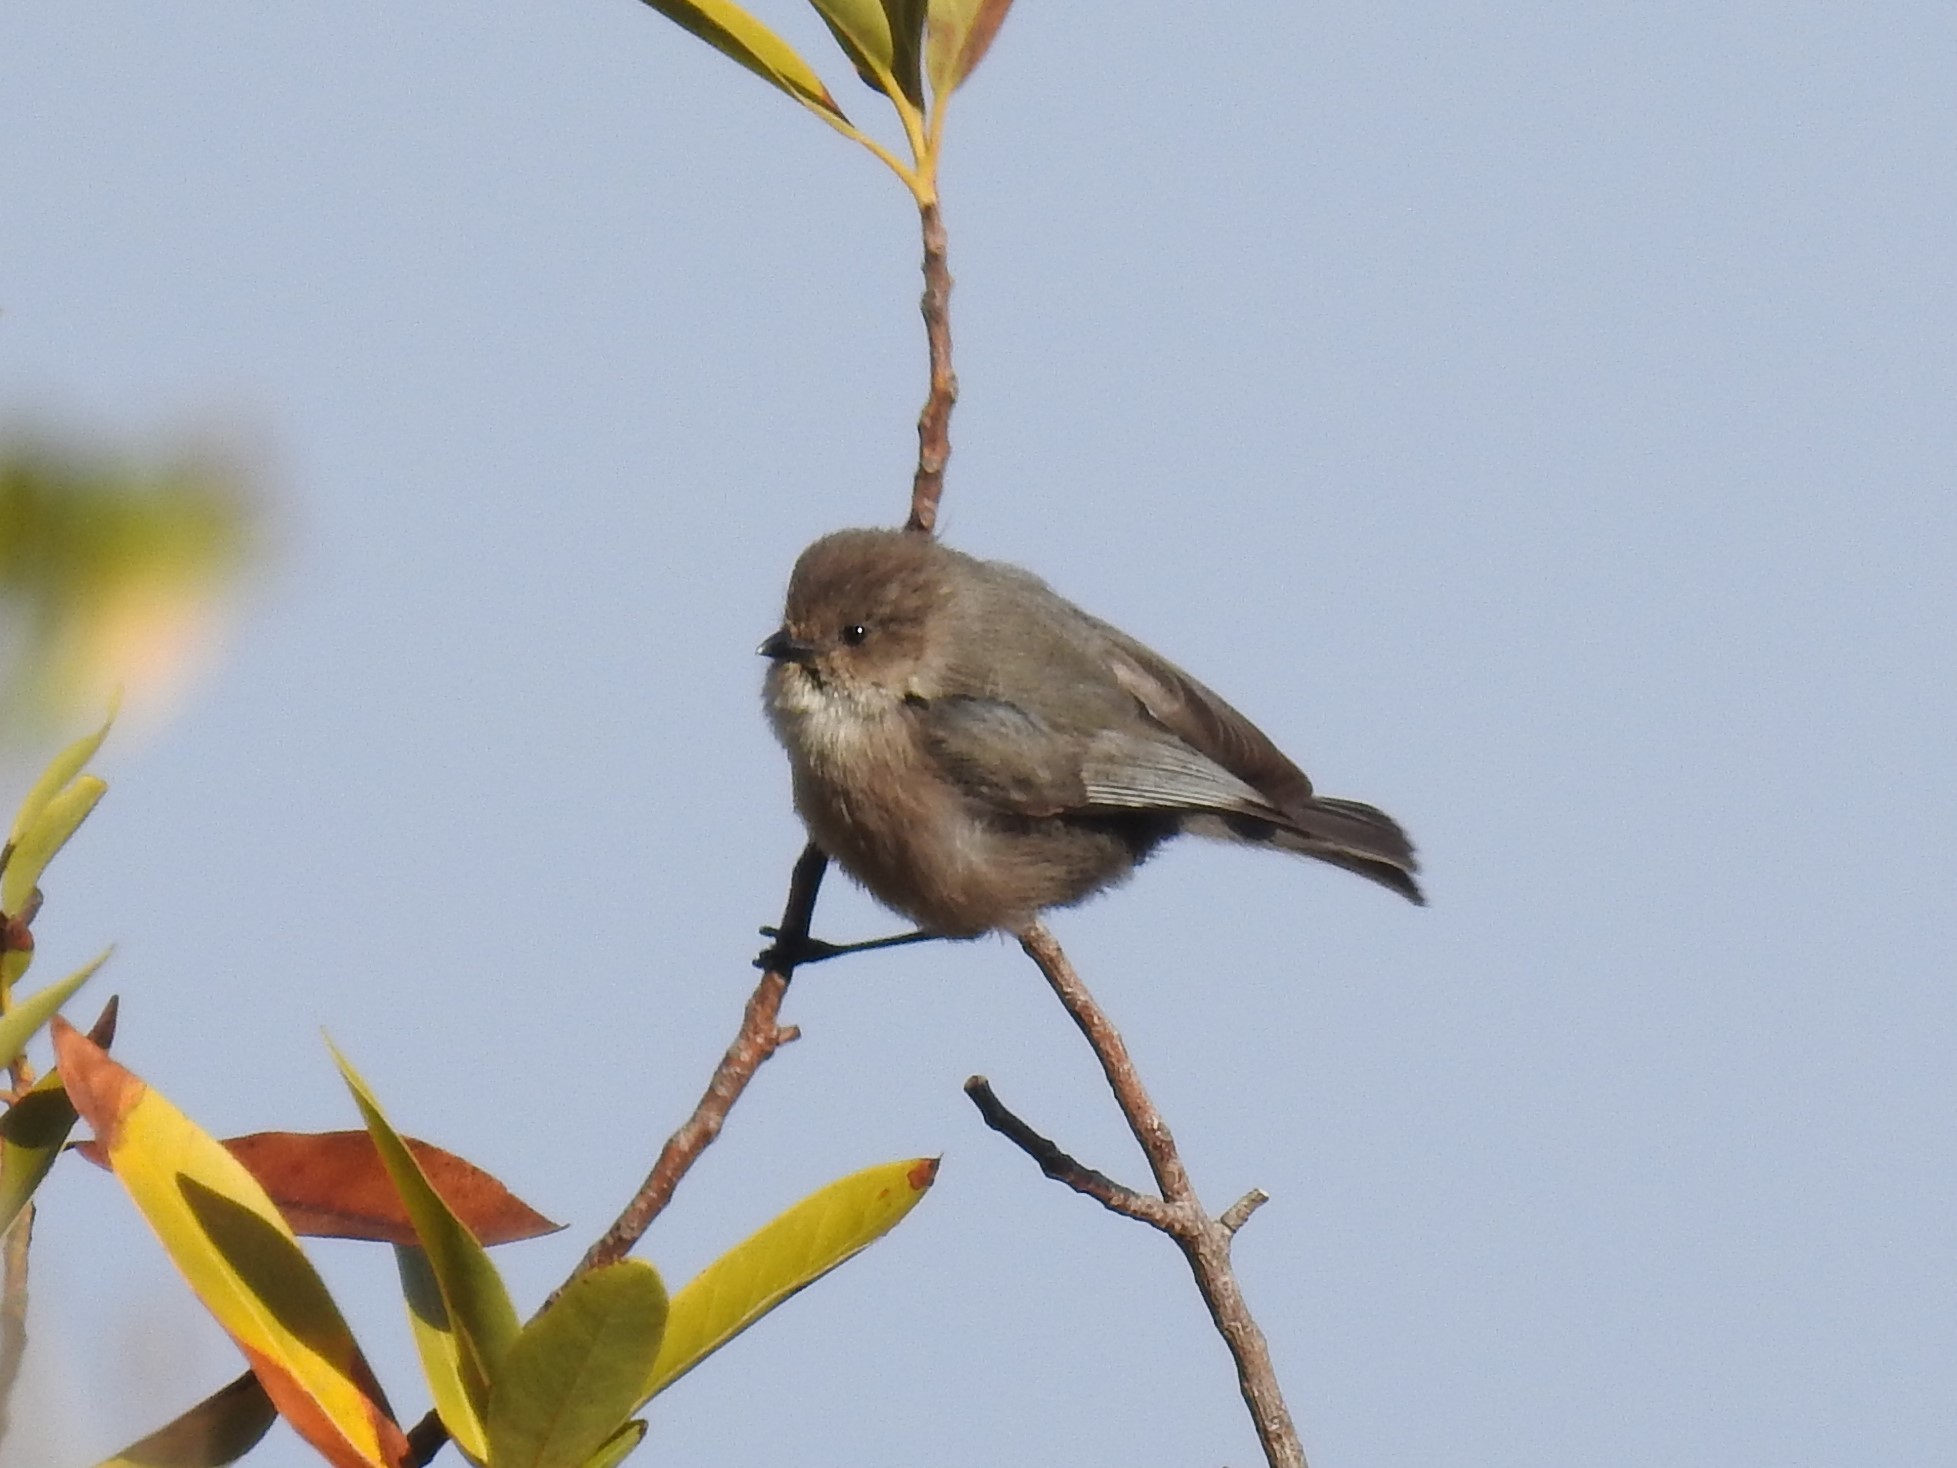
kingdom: Animalia
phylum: Chordata
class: Aves
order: Passeriformes
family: Aegithalidae
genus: Psaltriparus
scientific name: Psaltriparus minimus
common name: American bushtit
